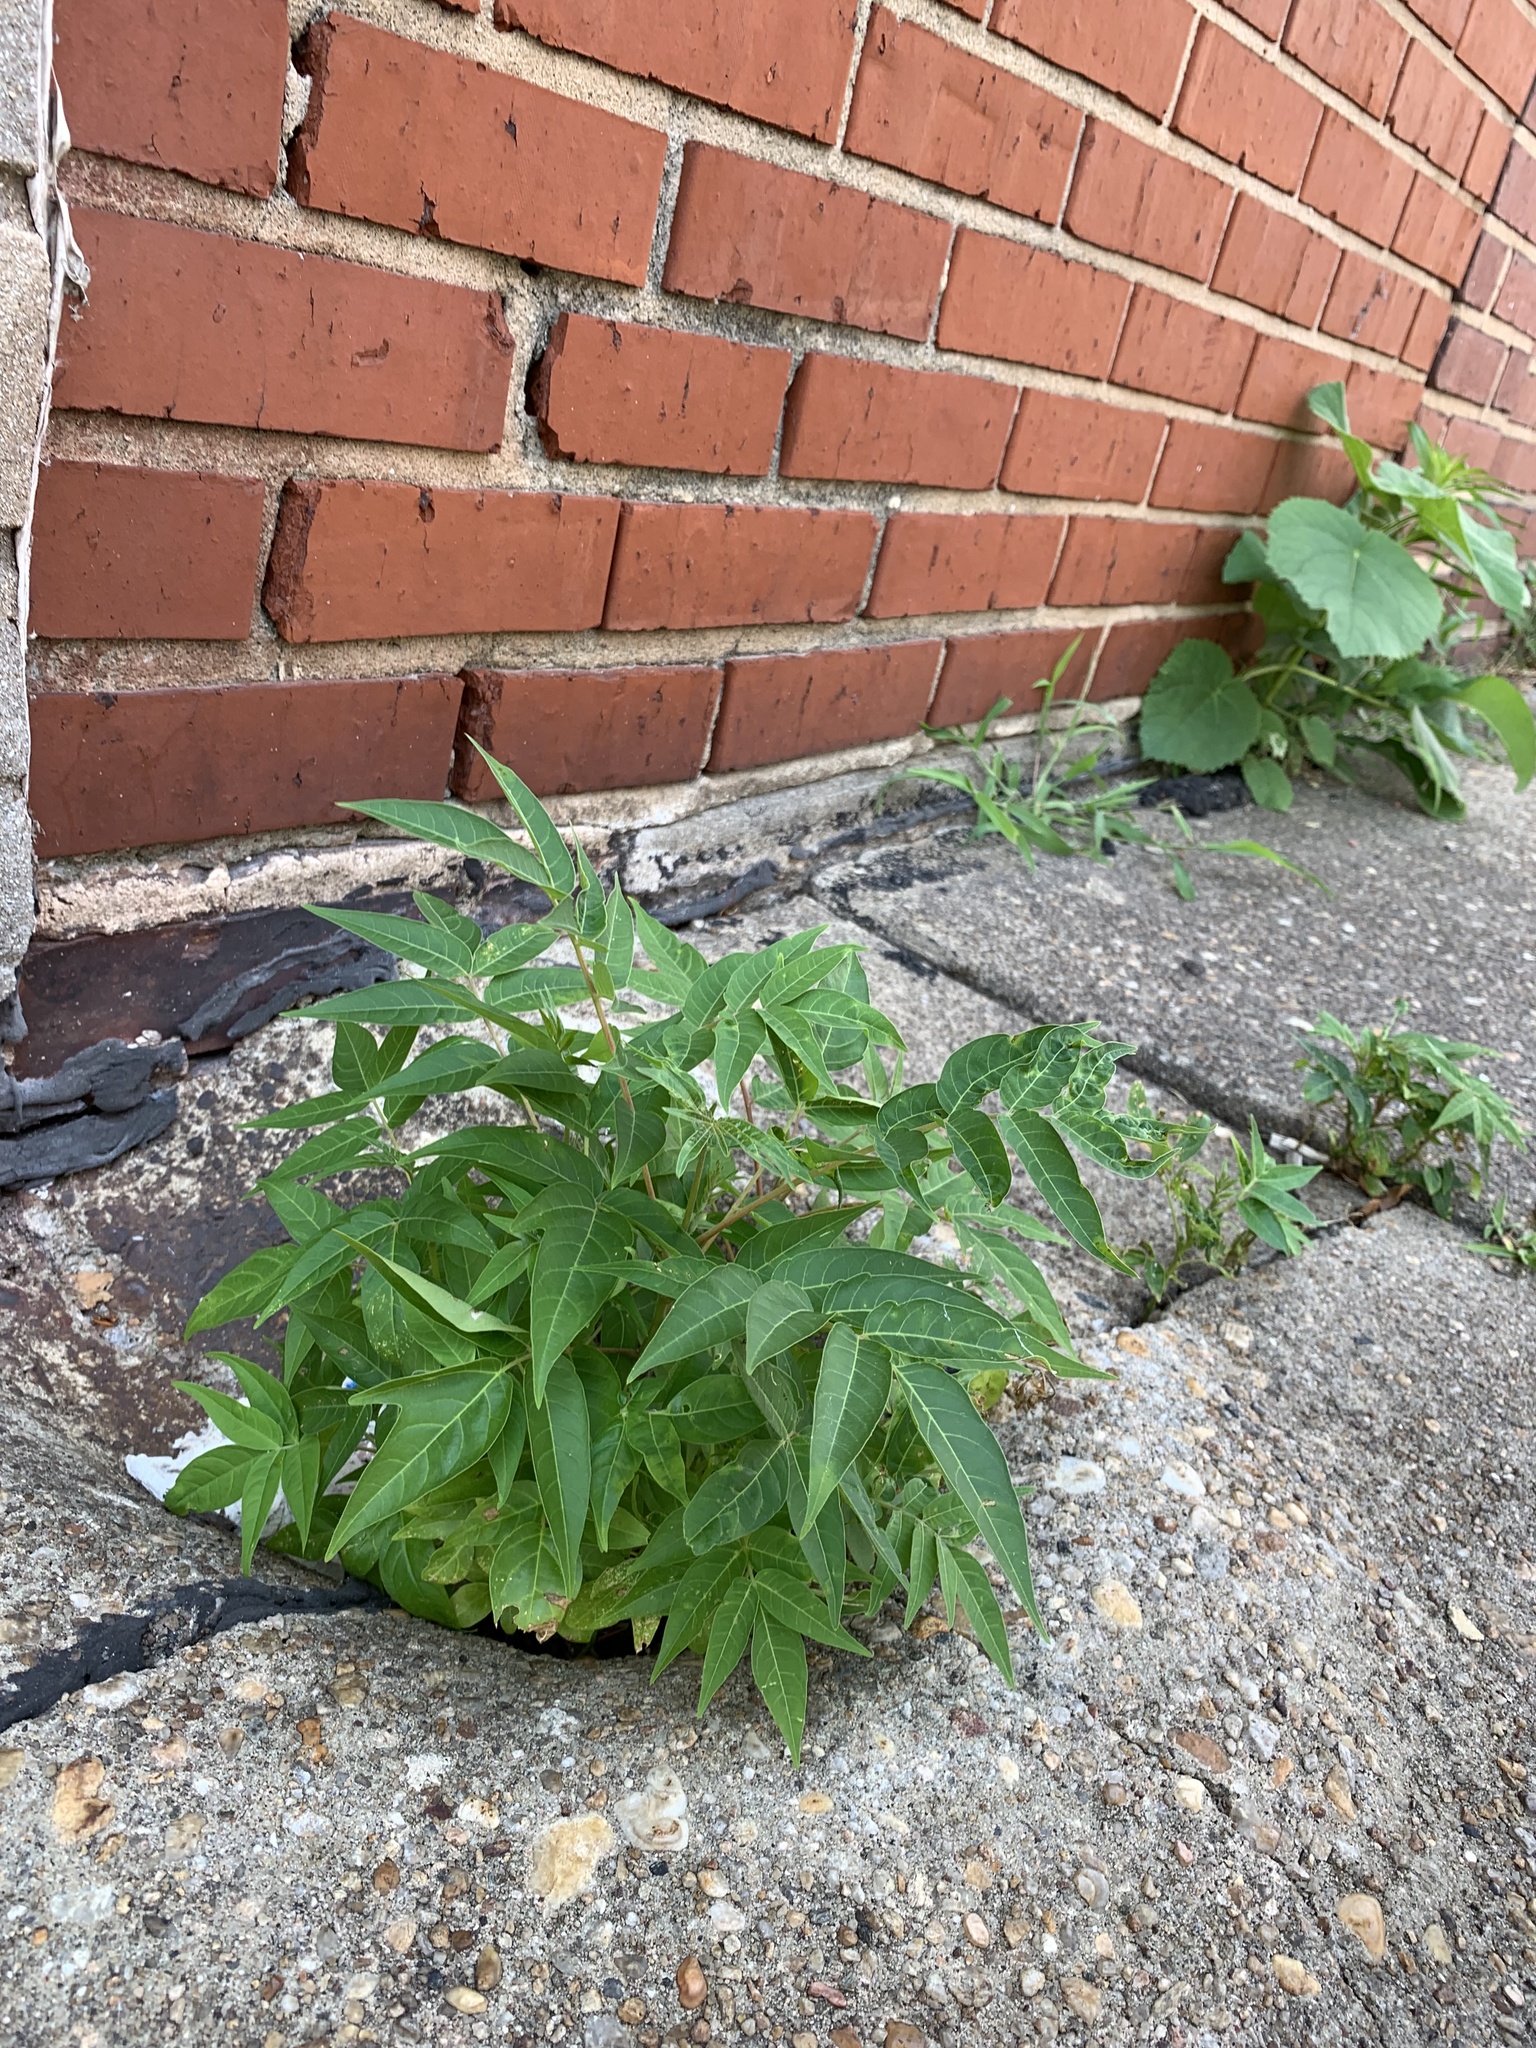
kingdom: Plantae
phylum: Tracheophyta
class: Magnoliopsida
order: Sapindales
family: Simaroubaceae
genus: Ailanthus
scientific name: Ailanthus altissima
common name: Tree-of-heaven
